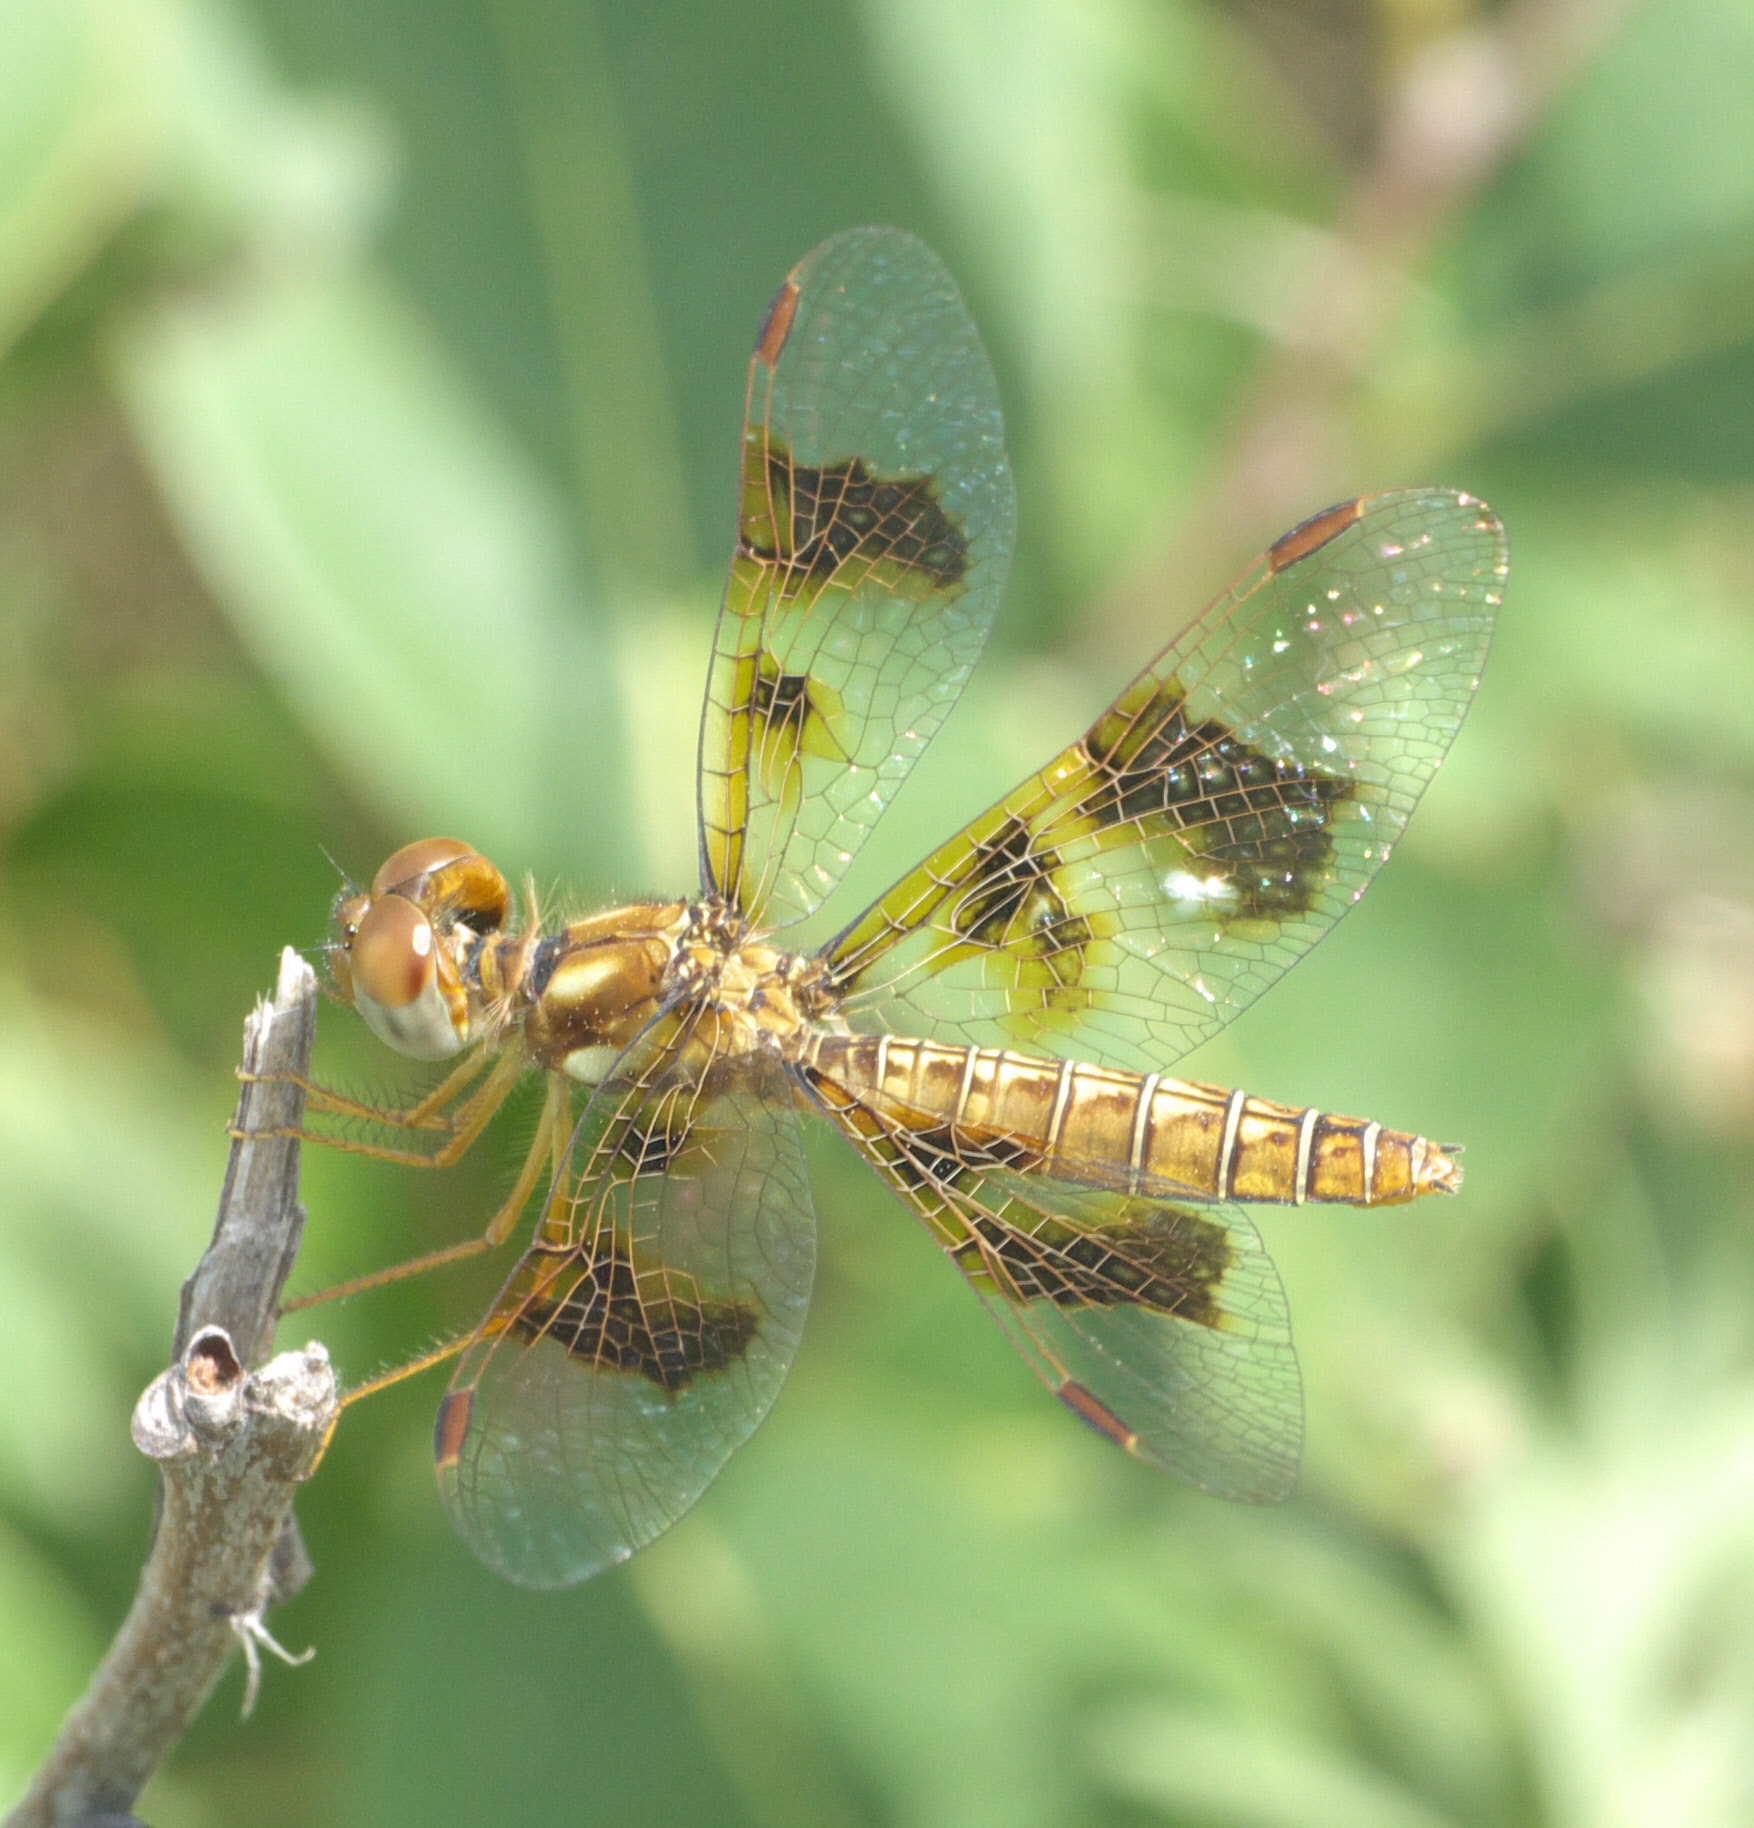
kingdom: Animalia
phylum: Arthropoda
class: Insecta
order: Odonata
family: Libellulidae
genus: Perithemis
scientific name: Perithemis tenera
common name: Eastern amberwing
